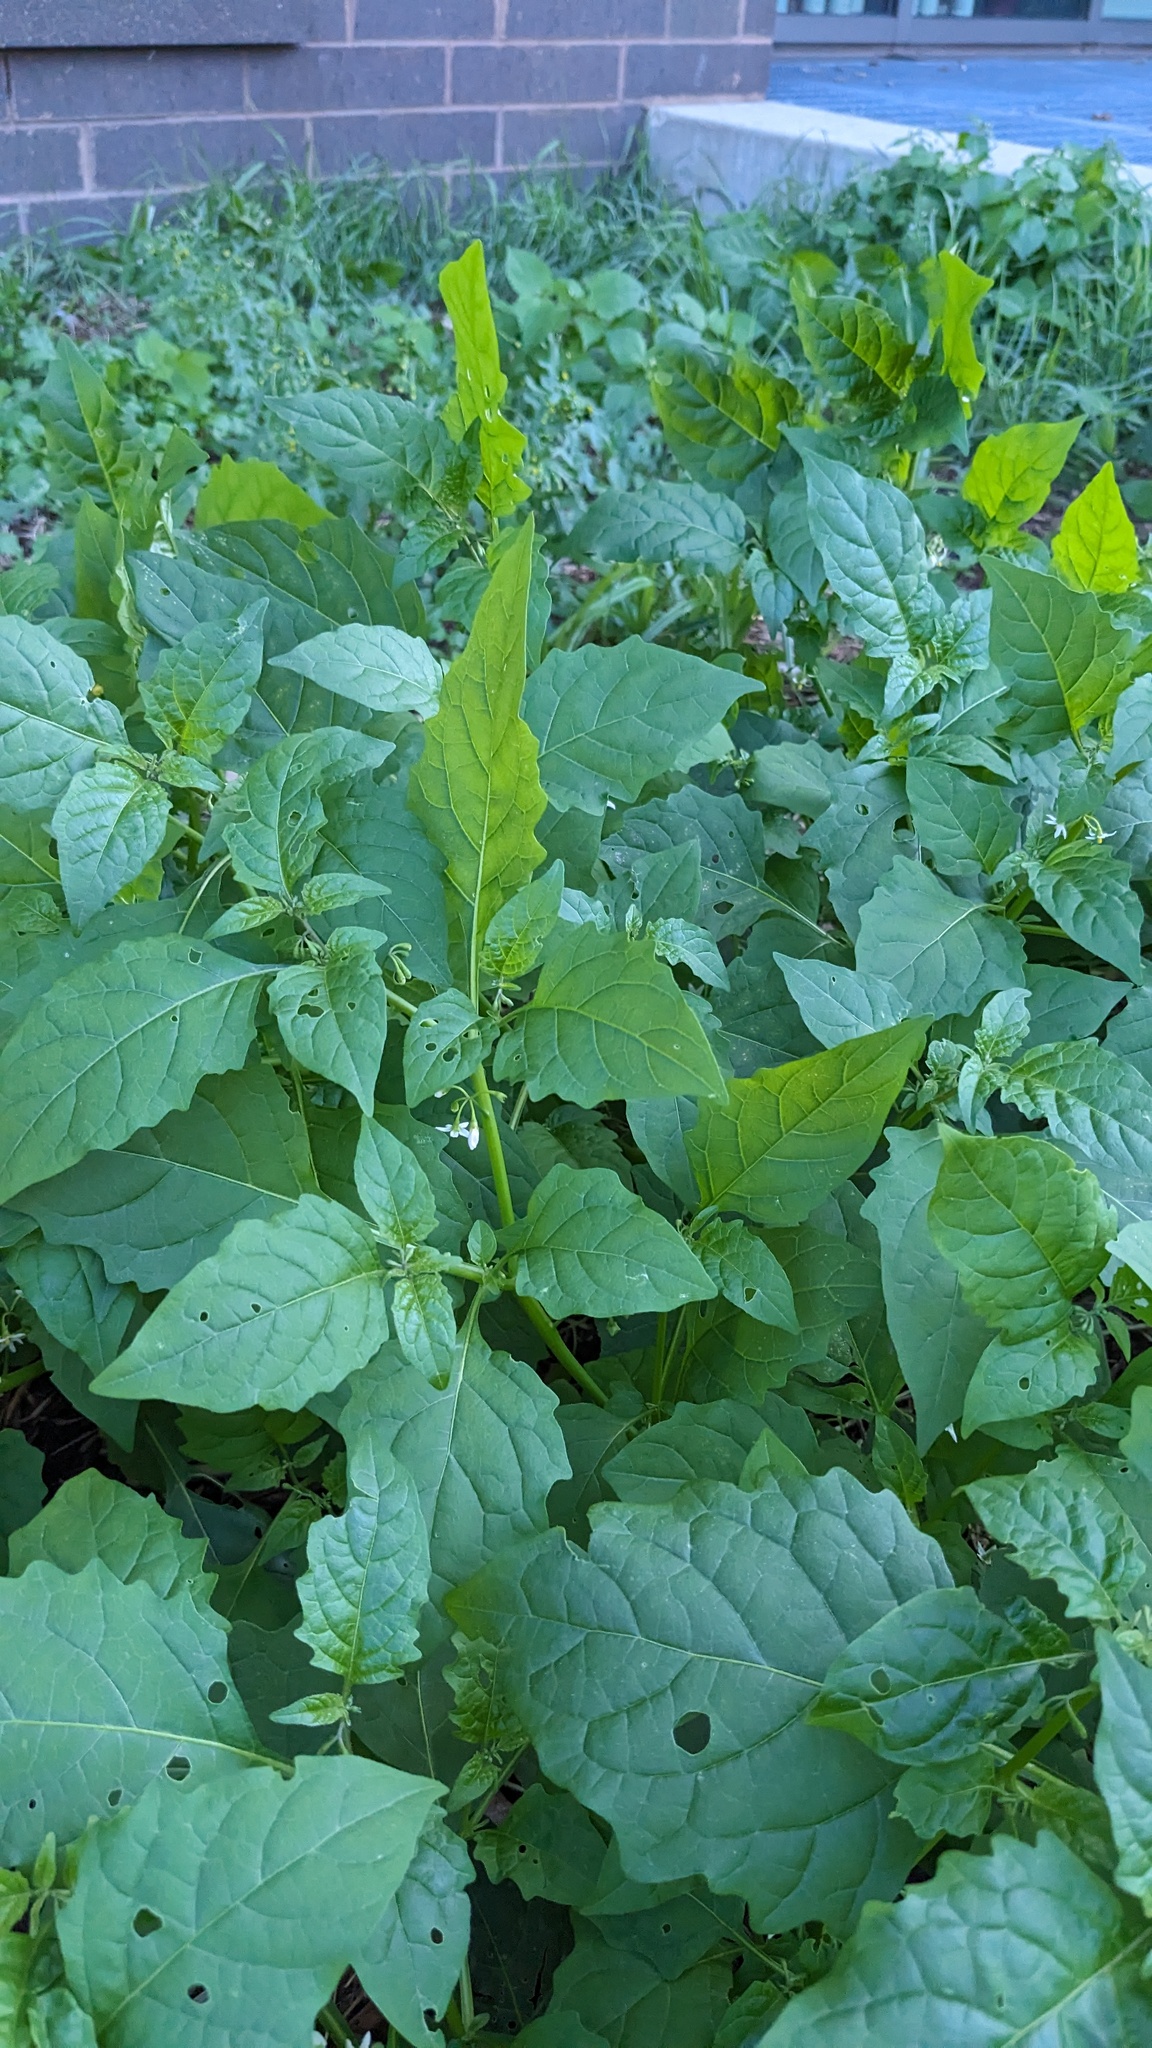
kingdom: Plantae
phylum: Tracheophyta
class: Magnoliopsida
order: Solanales
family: Solanaceae
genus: Solanum
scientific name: Solanum emulans
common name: Eastern black nightshade
